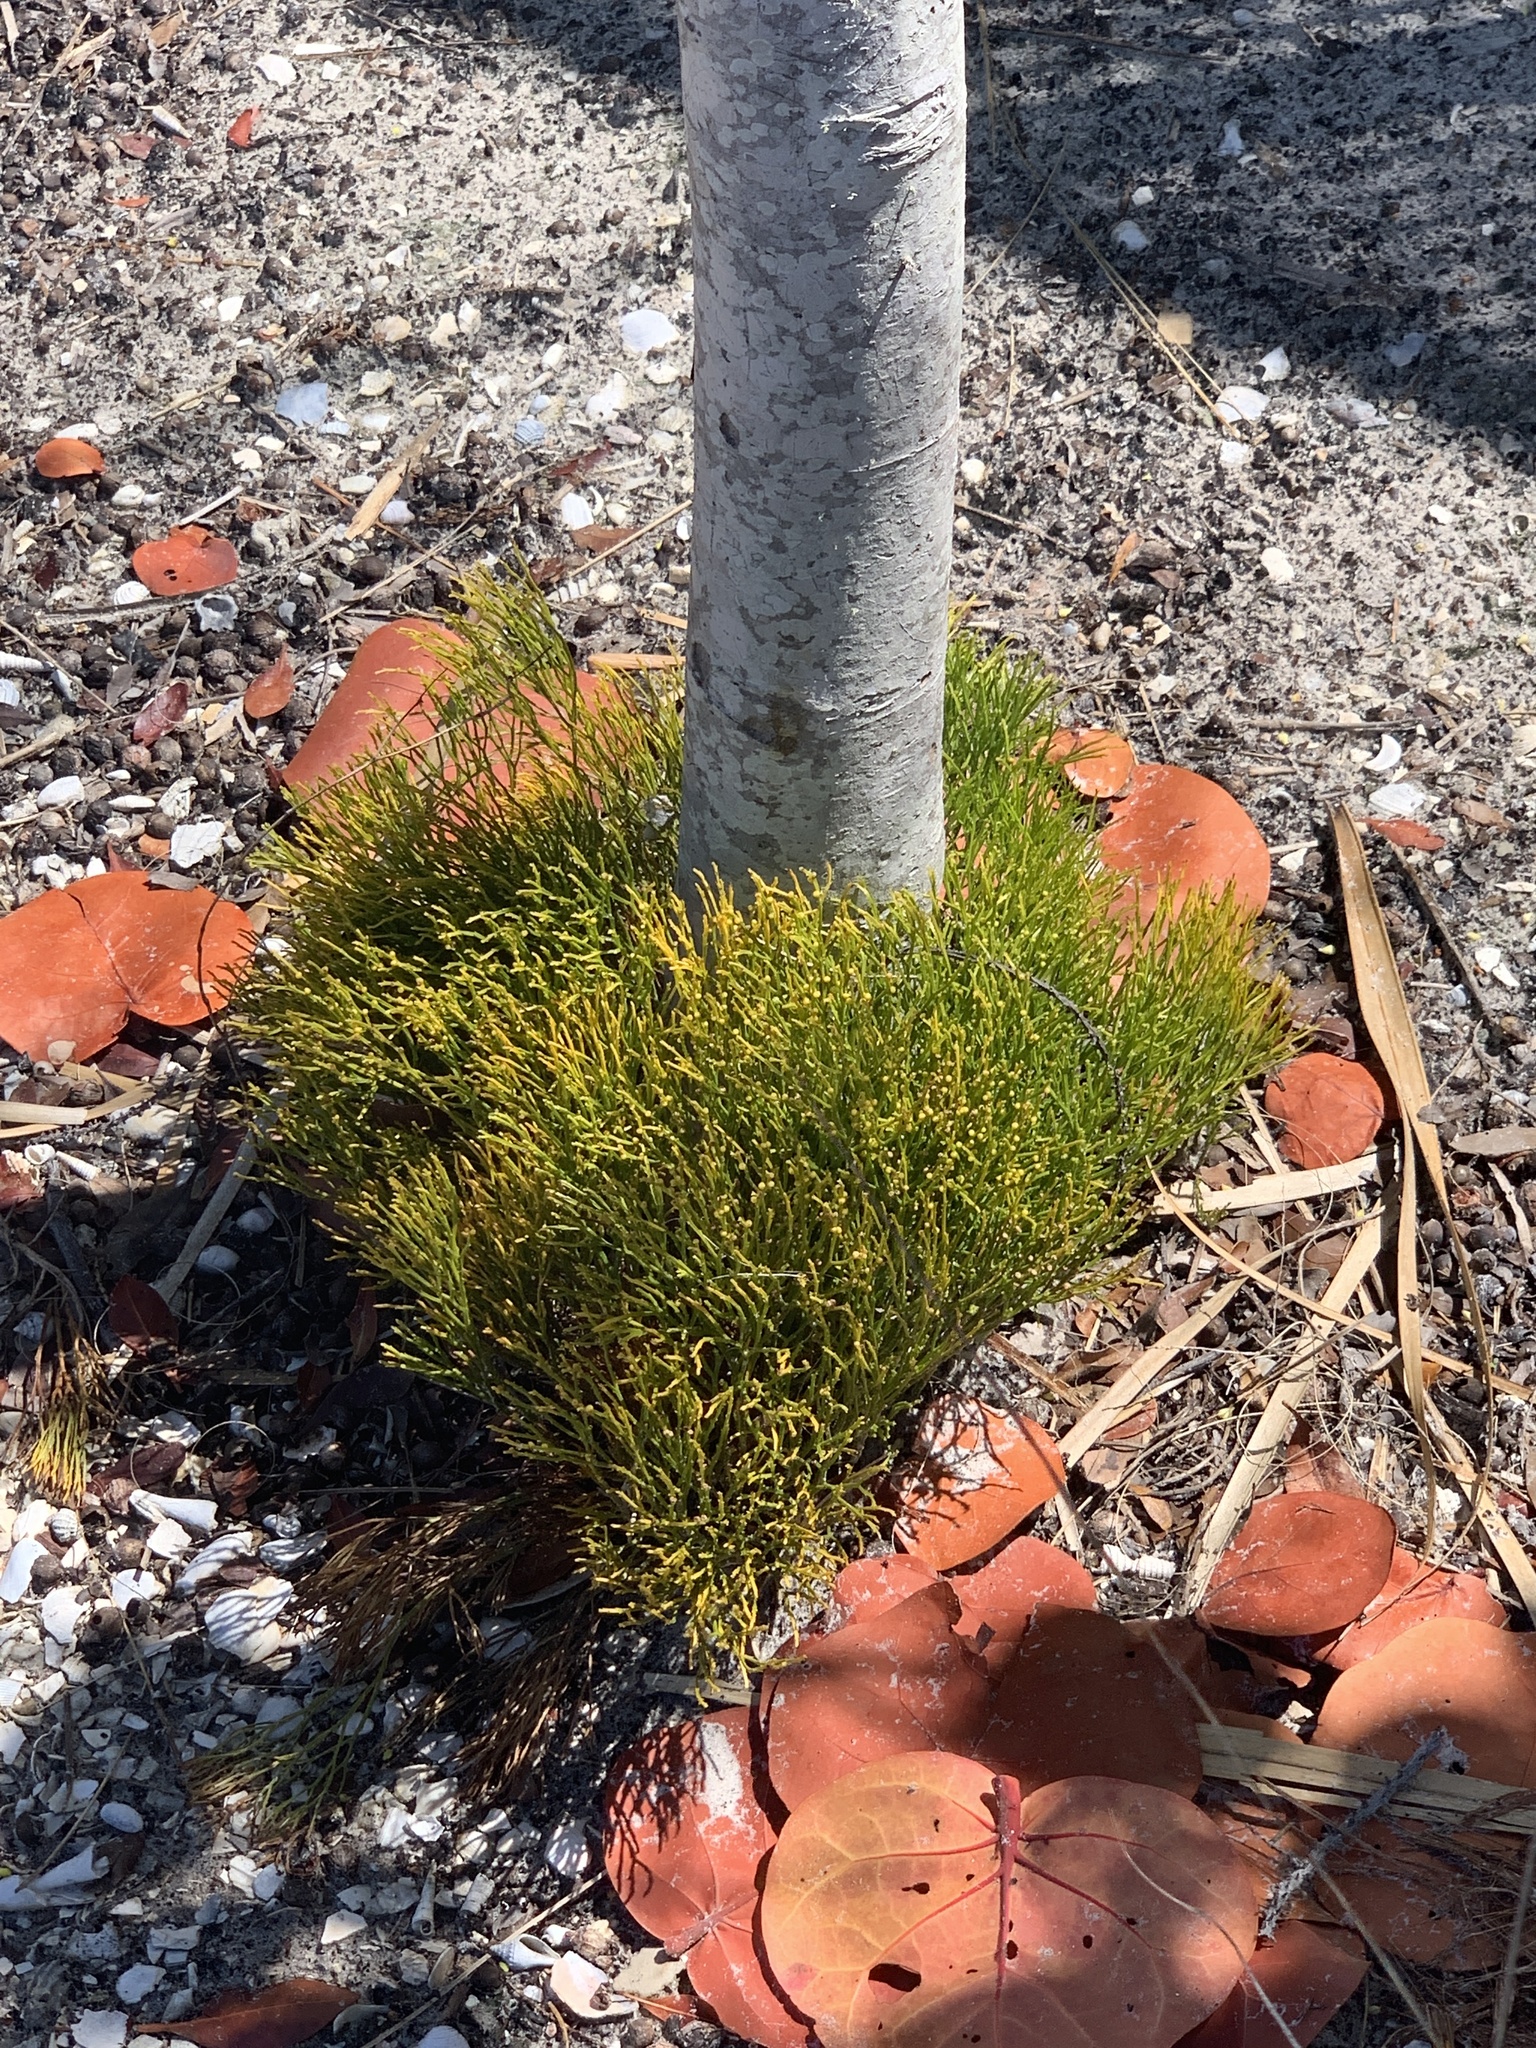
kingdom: Plantae
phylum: Tracheophyta
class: Polypodiopsida
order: Psilotales
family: Psilotaceae
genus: Psilotum
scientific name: Psilotum nudum
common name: Skeleton fork fern
